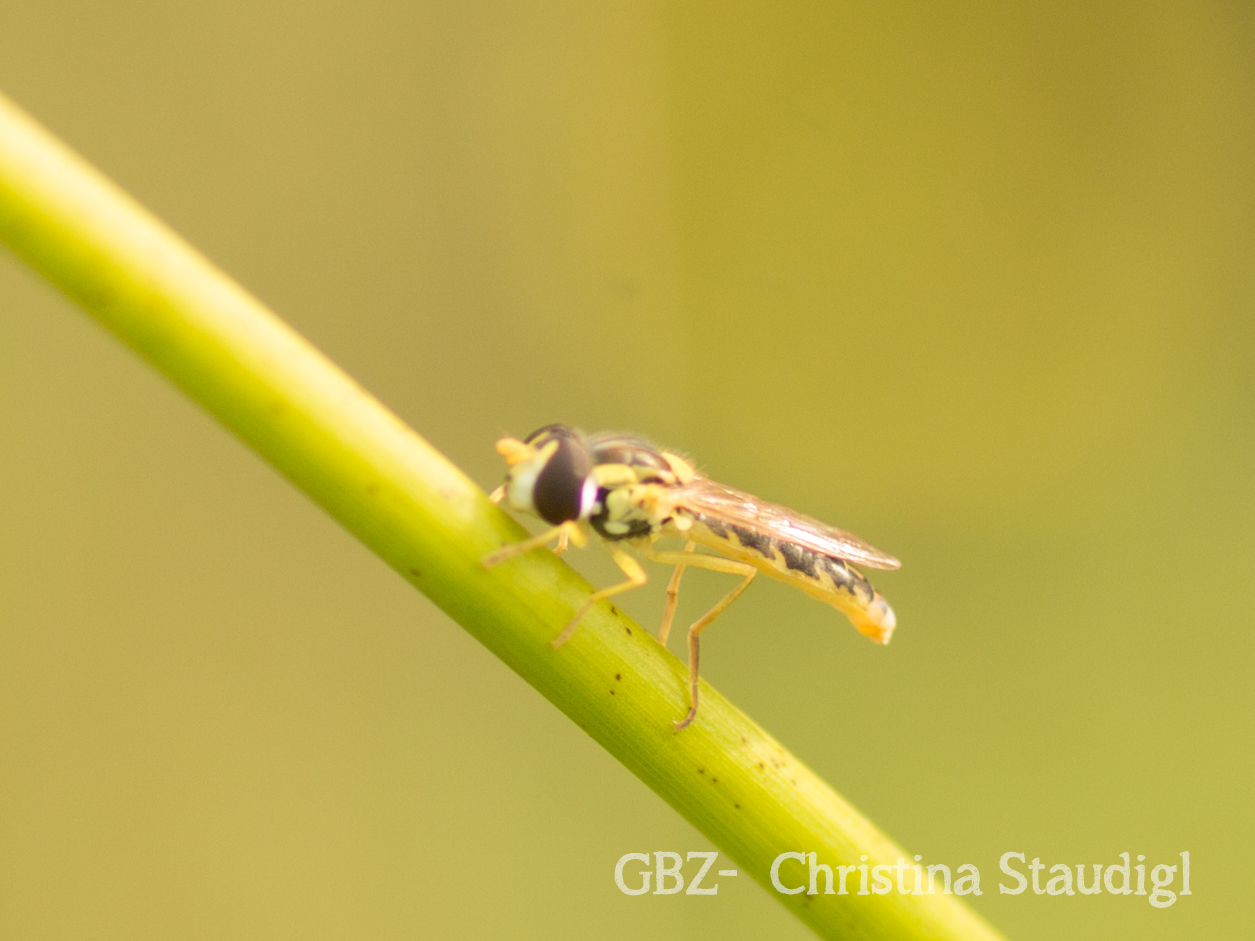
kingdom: Animalia
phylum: Arthropoda
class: Insecta
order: Diptera
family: Syrphidae
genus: Sphaerophoria
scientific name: Sphaerophoria
